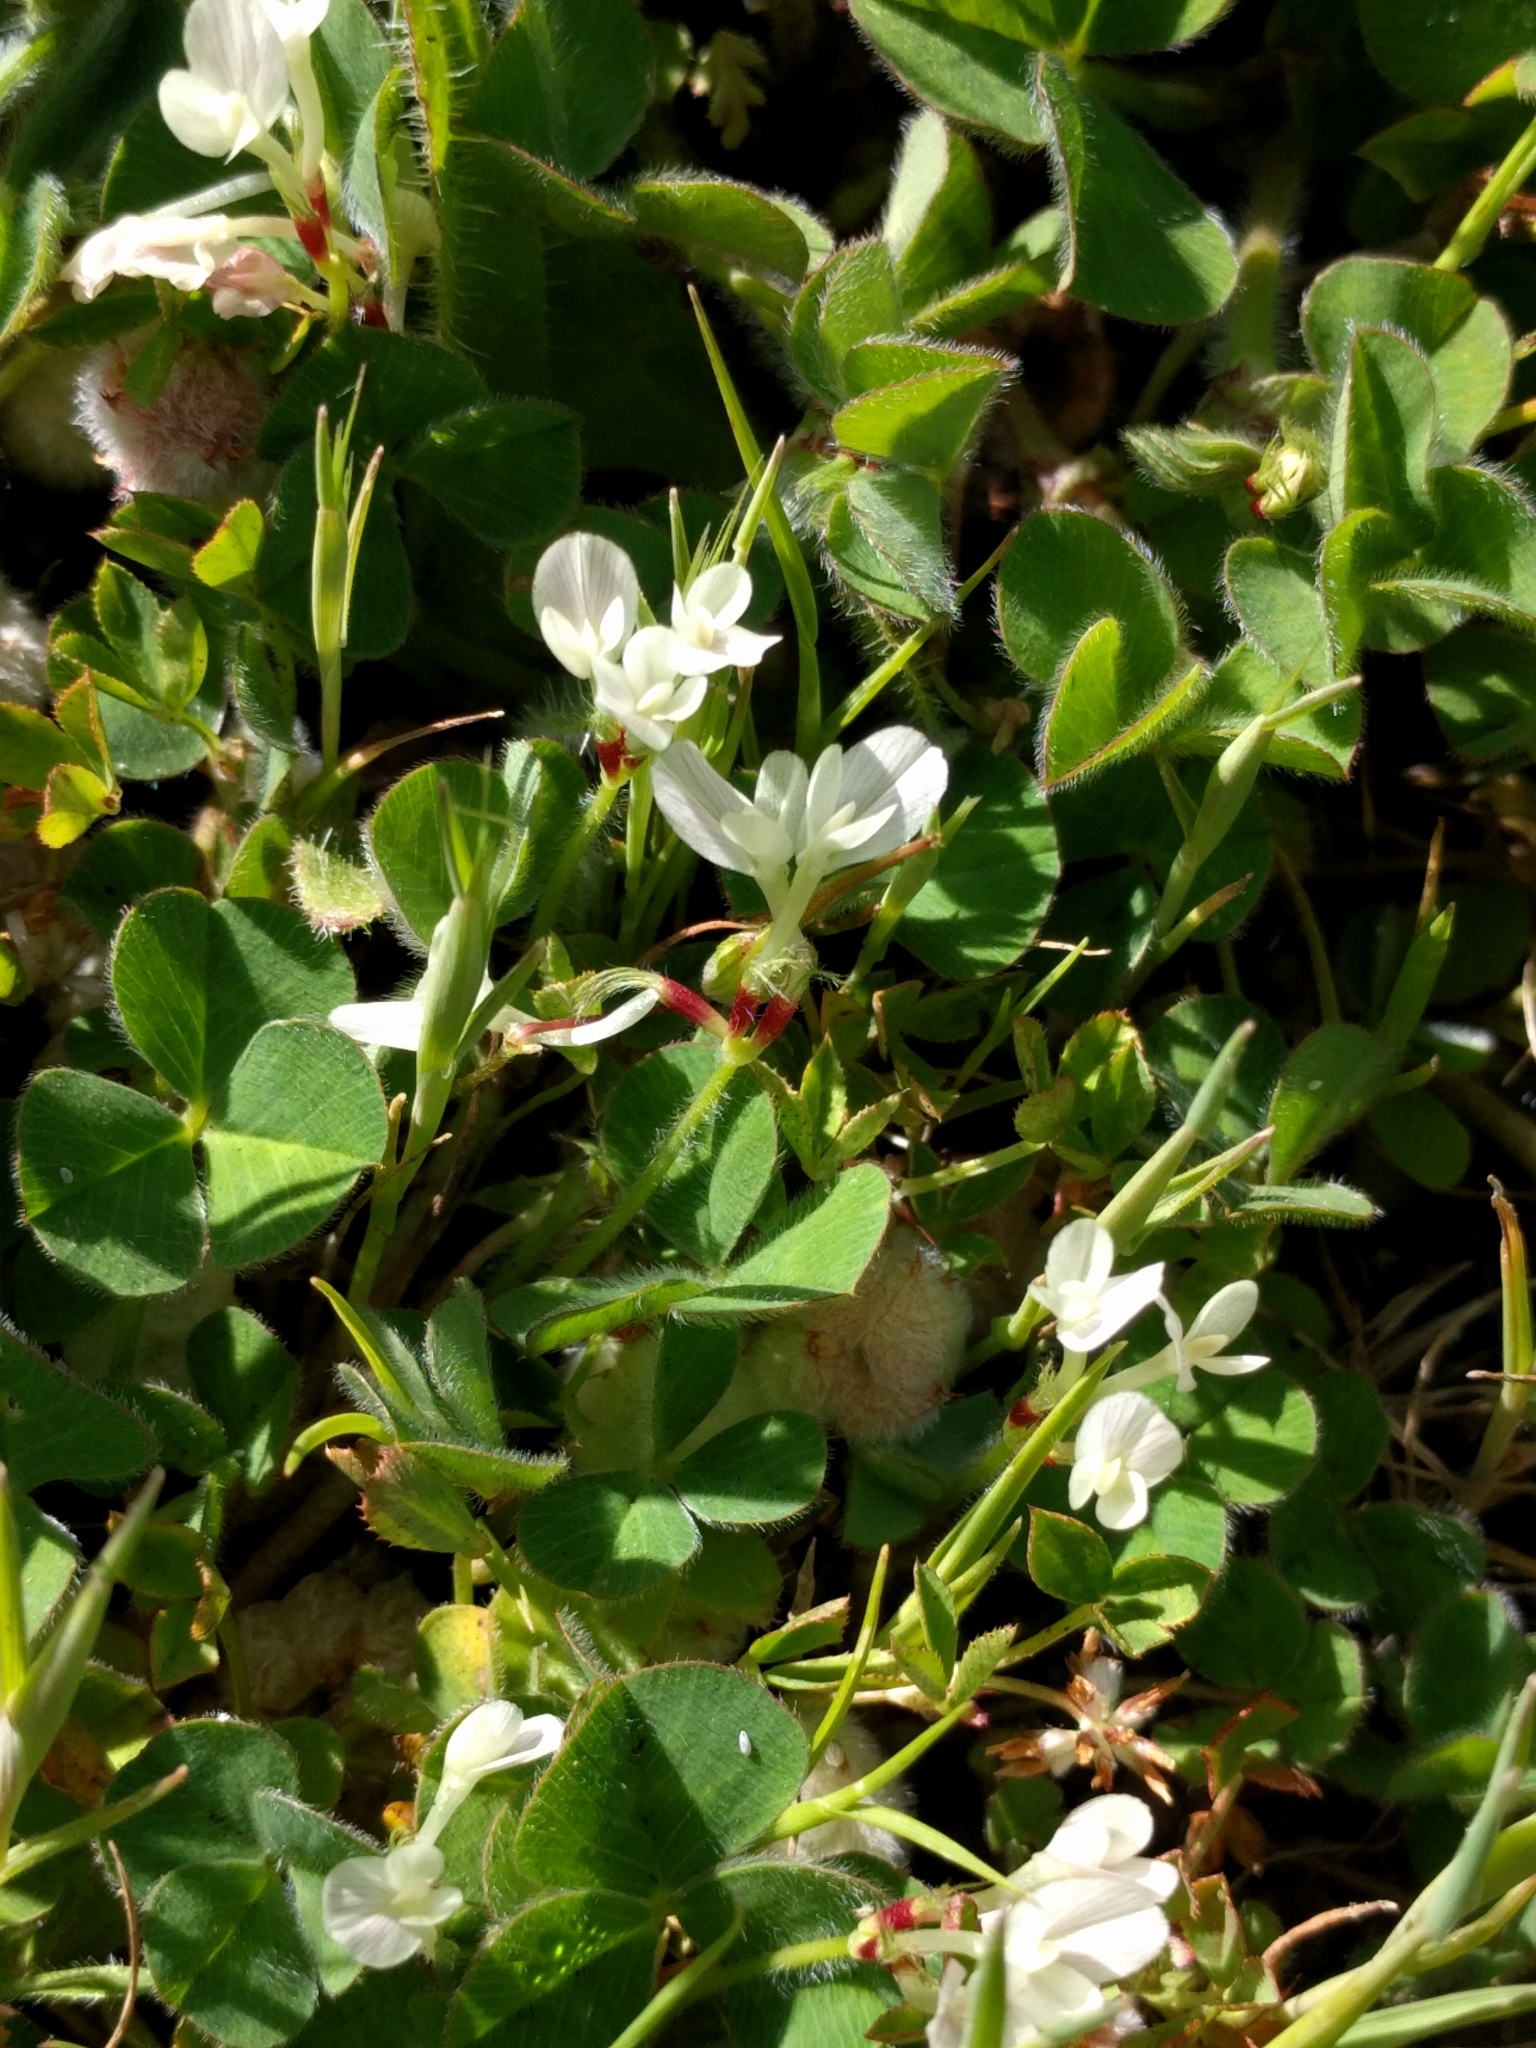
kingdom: Plantae
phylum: Tracheophyta
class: Magnoliopsida
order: Fabales
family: Fabaceae
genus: Trifolium
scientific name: Trifolium subterraneum
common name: Subterranean clover
